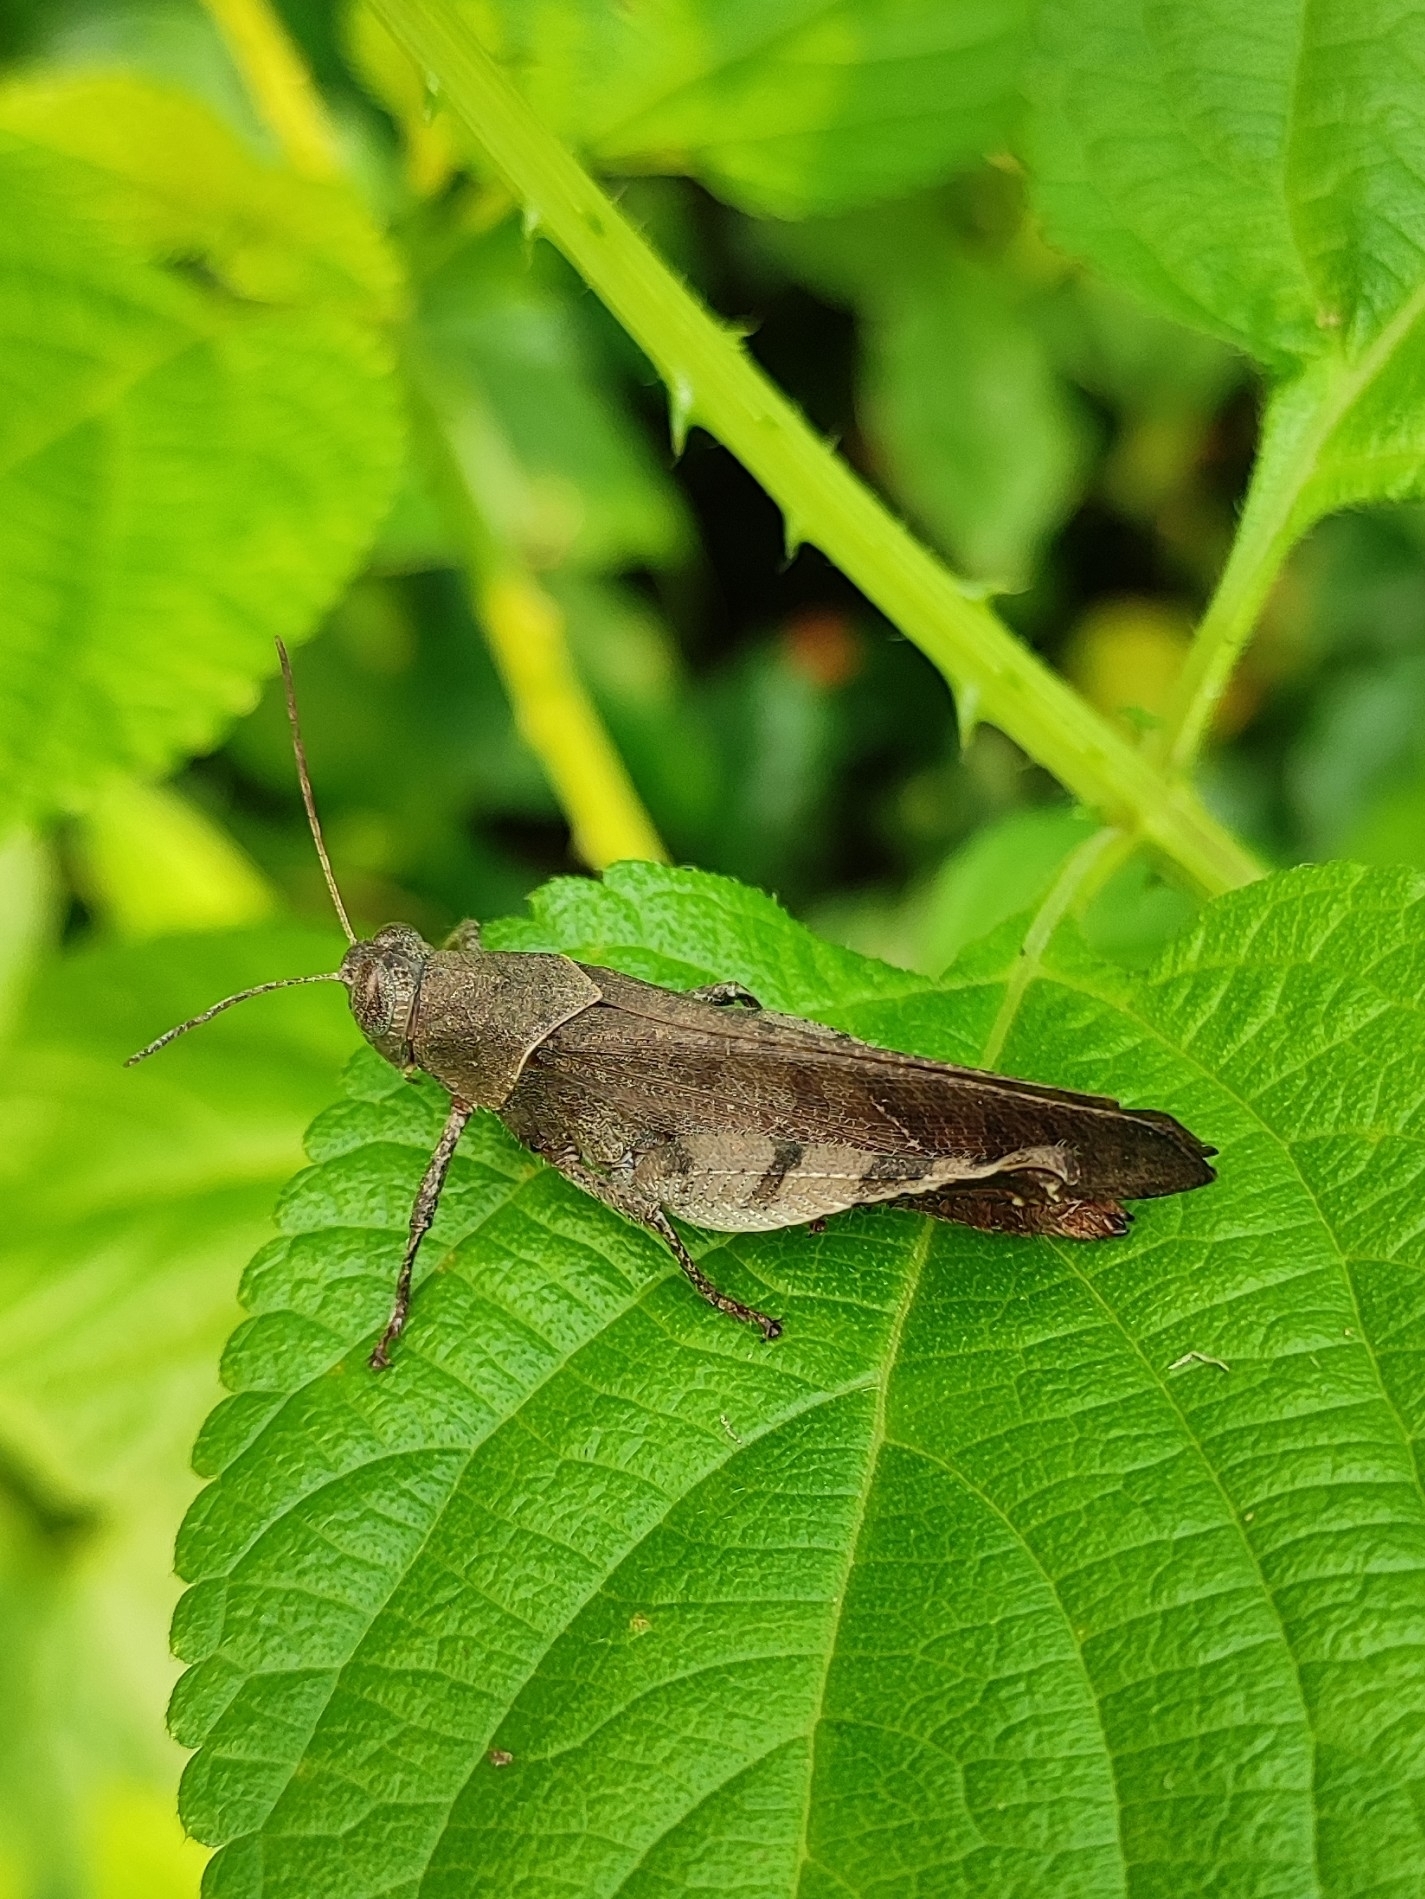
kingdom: Animalia
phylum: Arthropoda
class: Insecta
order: Orthoptera
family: Acrididae
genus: Eucoptacra
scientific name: Eucoptacra binghami
